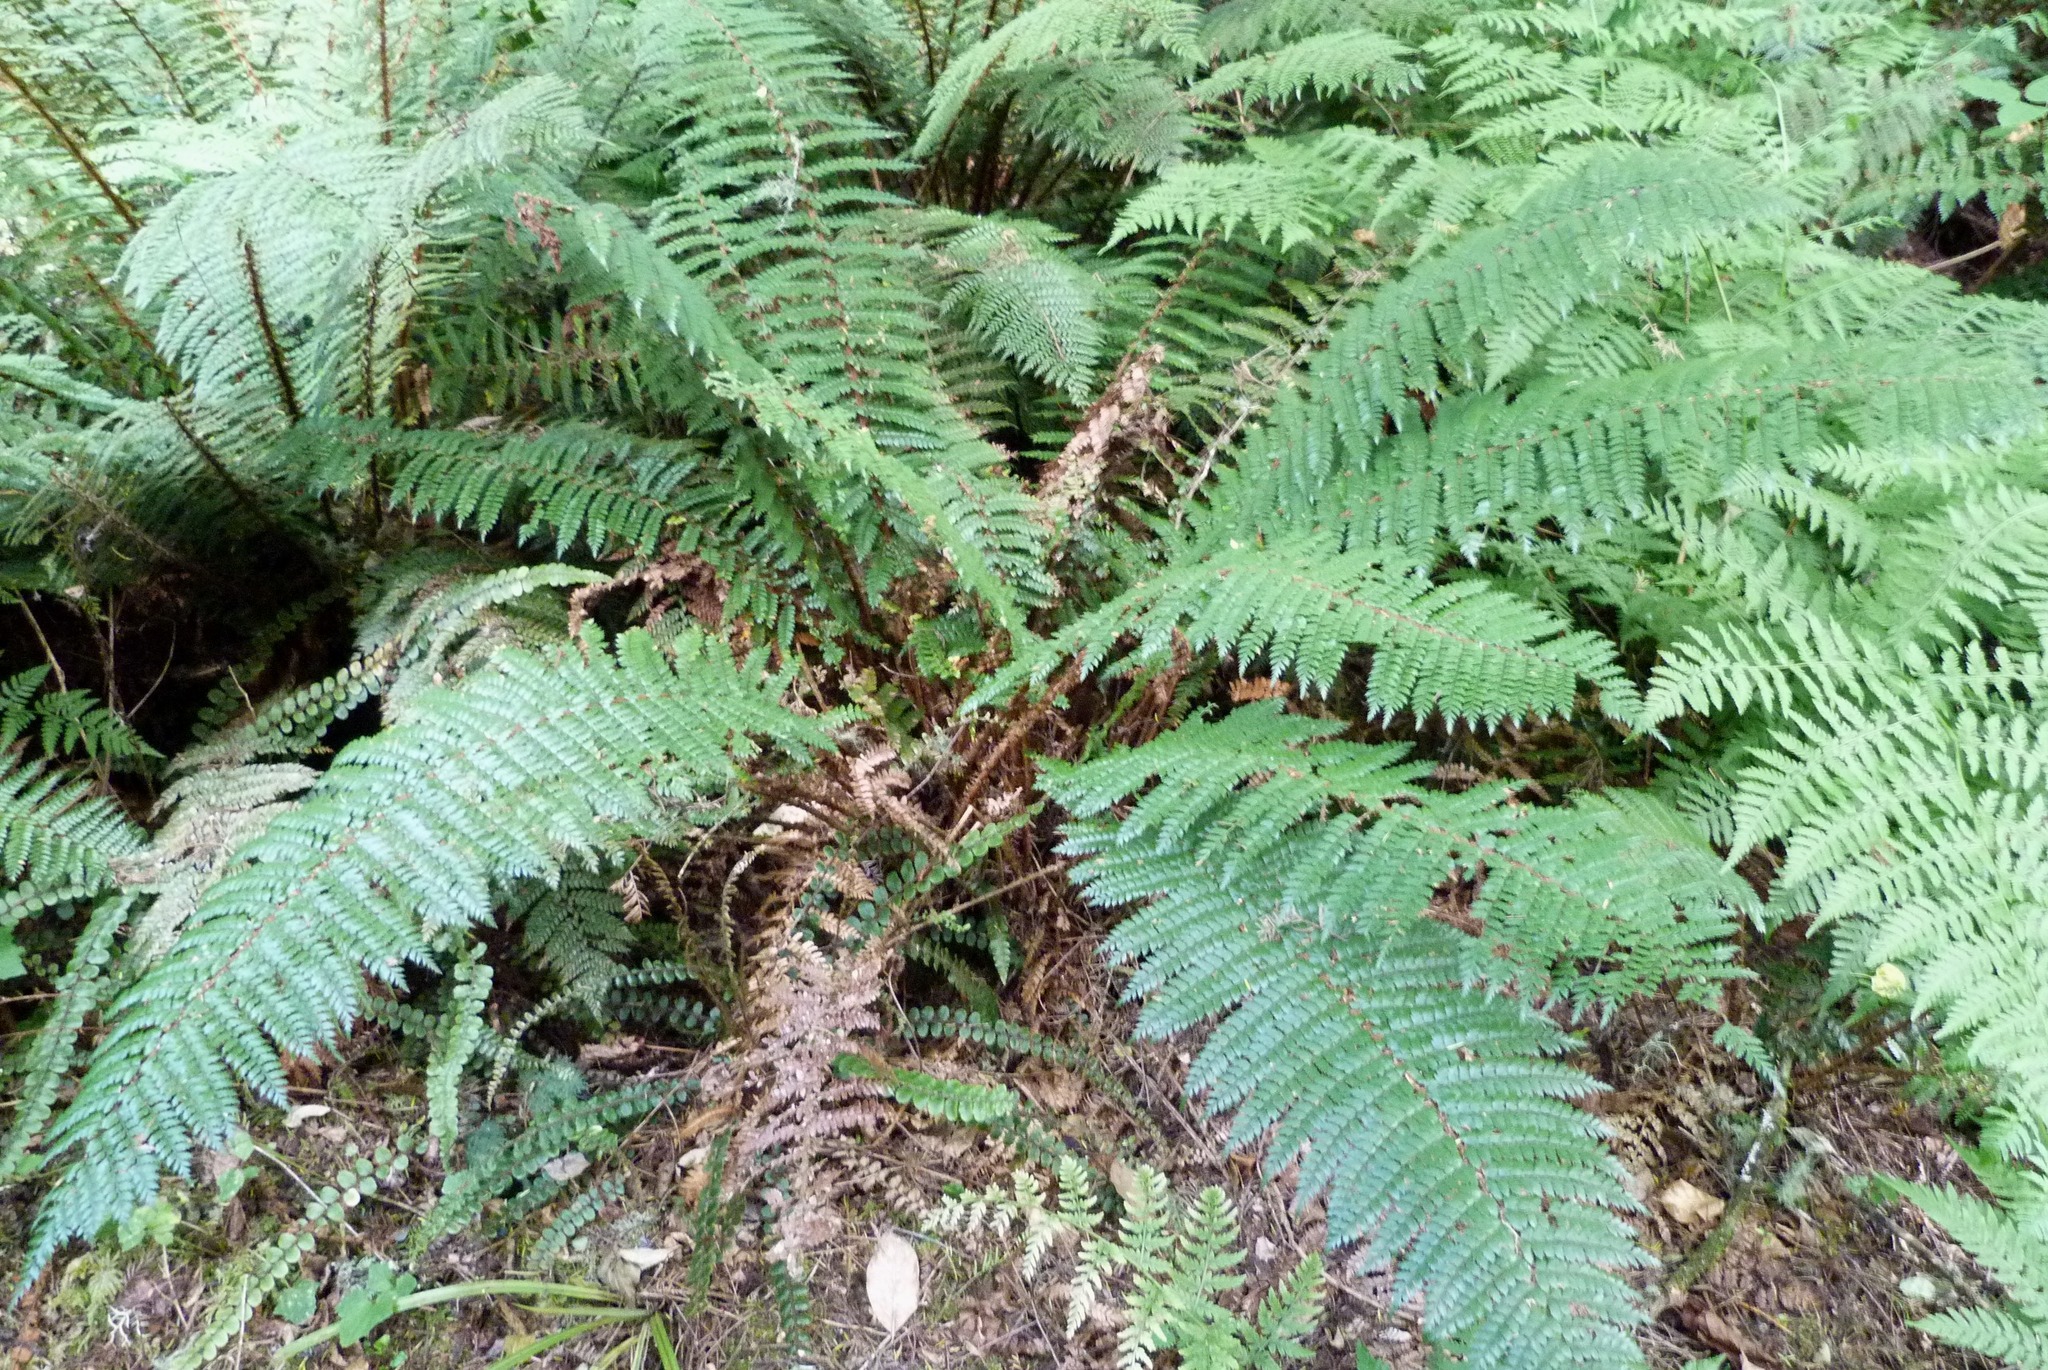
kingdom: Plantae
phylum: Tracheophyta
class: Polypodiopsida
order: Polypodiales
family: Dryopteridaceae
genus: Polystichum
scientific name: Polystichum vestitum
